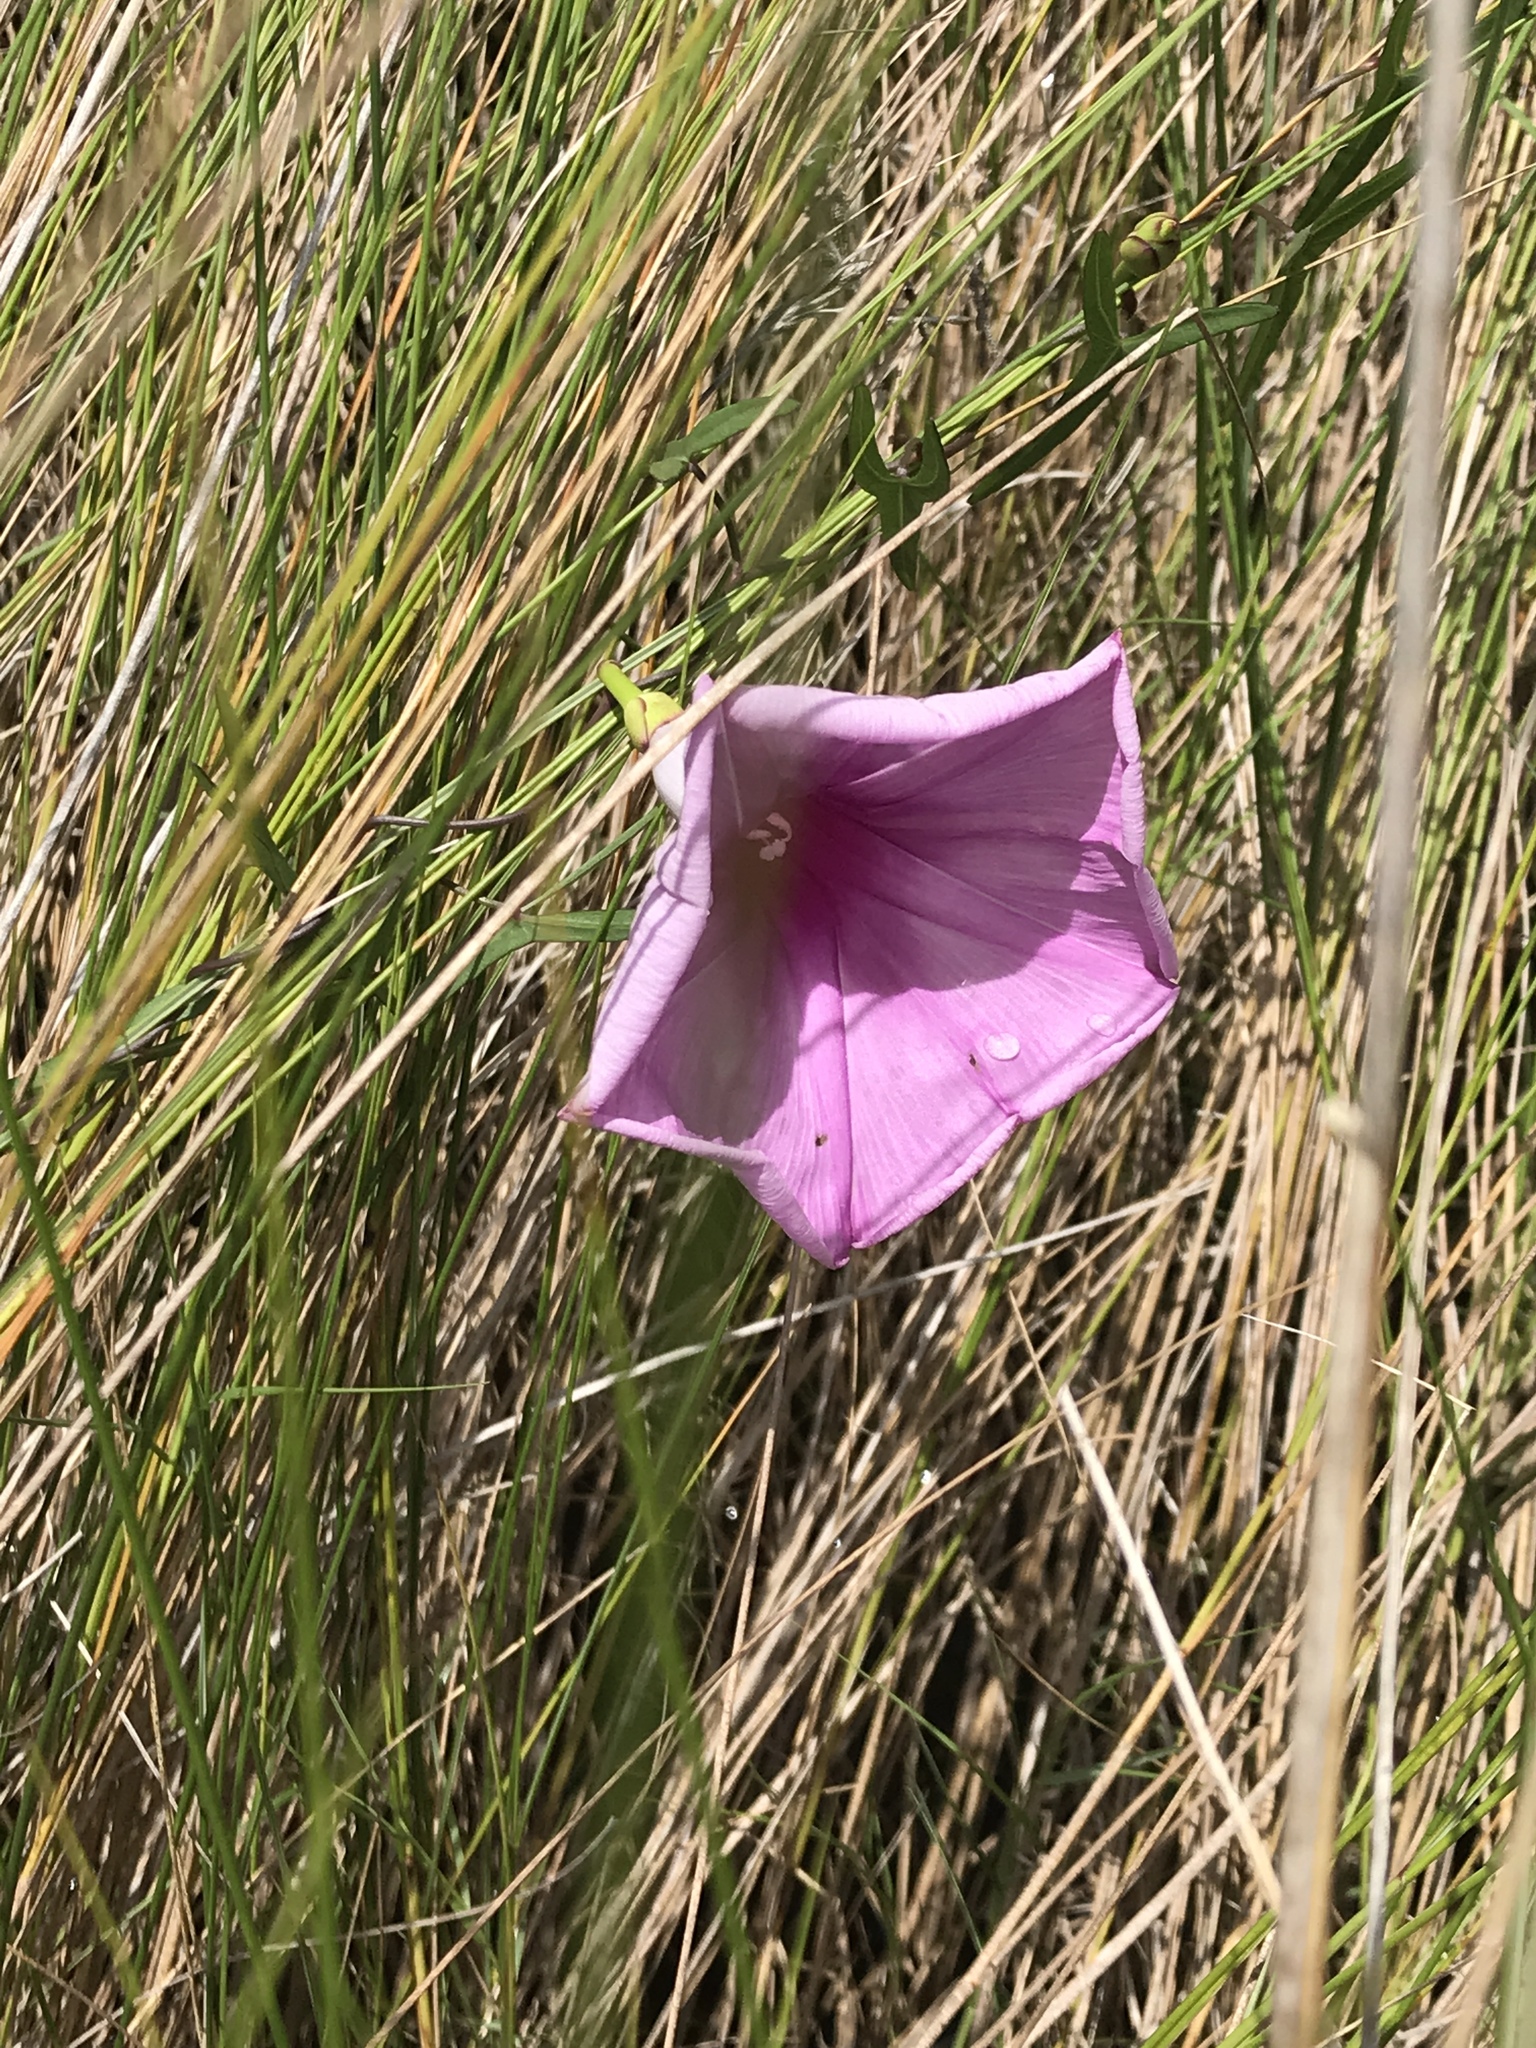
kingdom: Plantae
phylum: Tracheophyta
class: Magnoliopsida
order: Solanales
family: Convolvulaceae
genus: Ipomoea
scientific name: Ipomoea sagittata
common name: Saltmarsh morning glory
